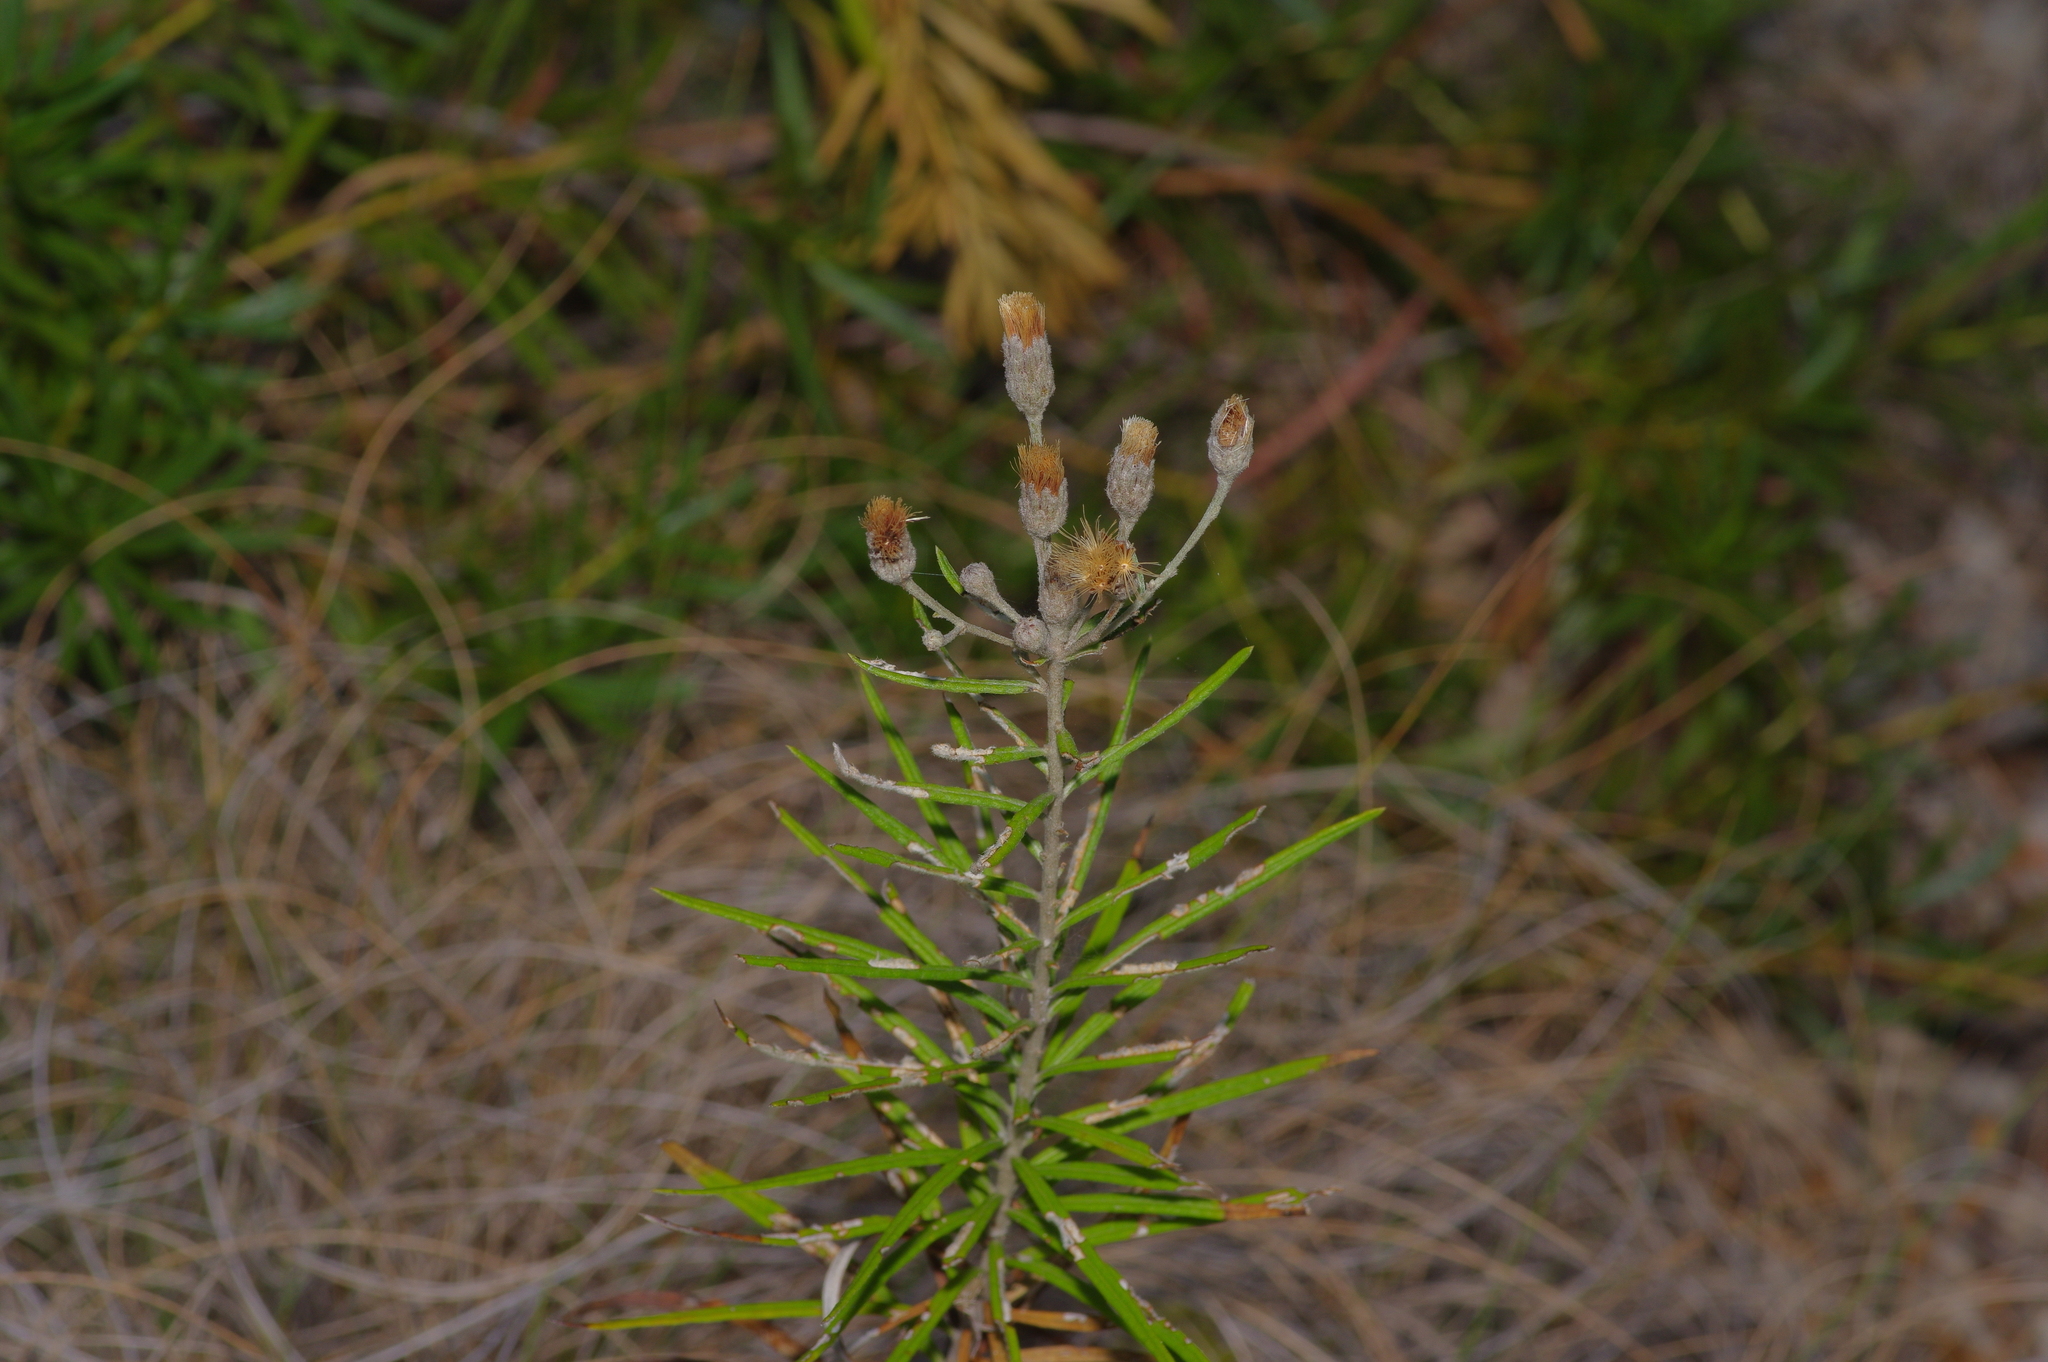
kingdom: Plantae
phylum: Tracheophyta
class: Magnoliopsida
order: Asterales
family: Asteraceae
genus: Vernonia
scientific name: Vernonia lindheimeri
